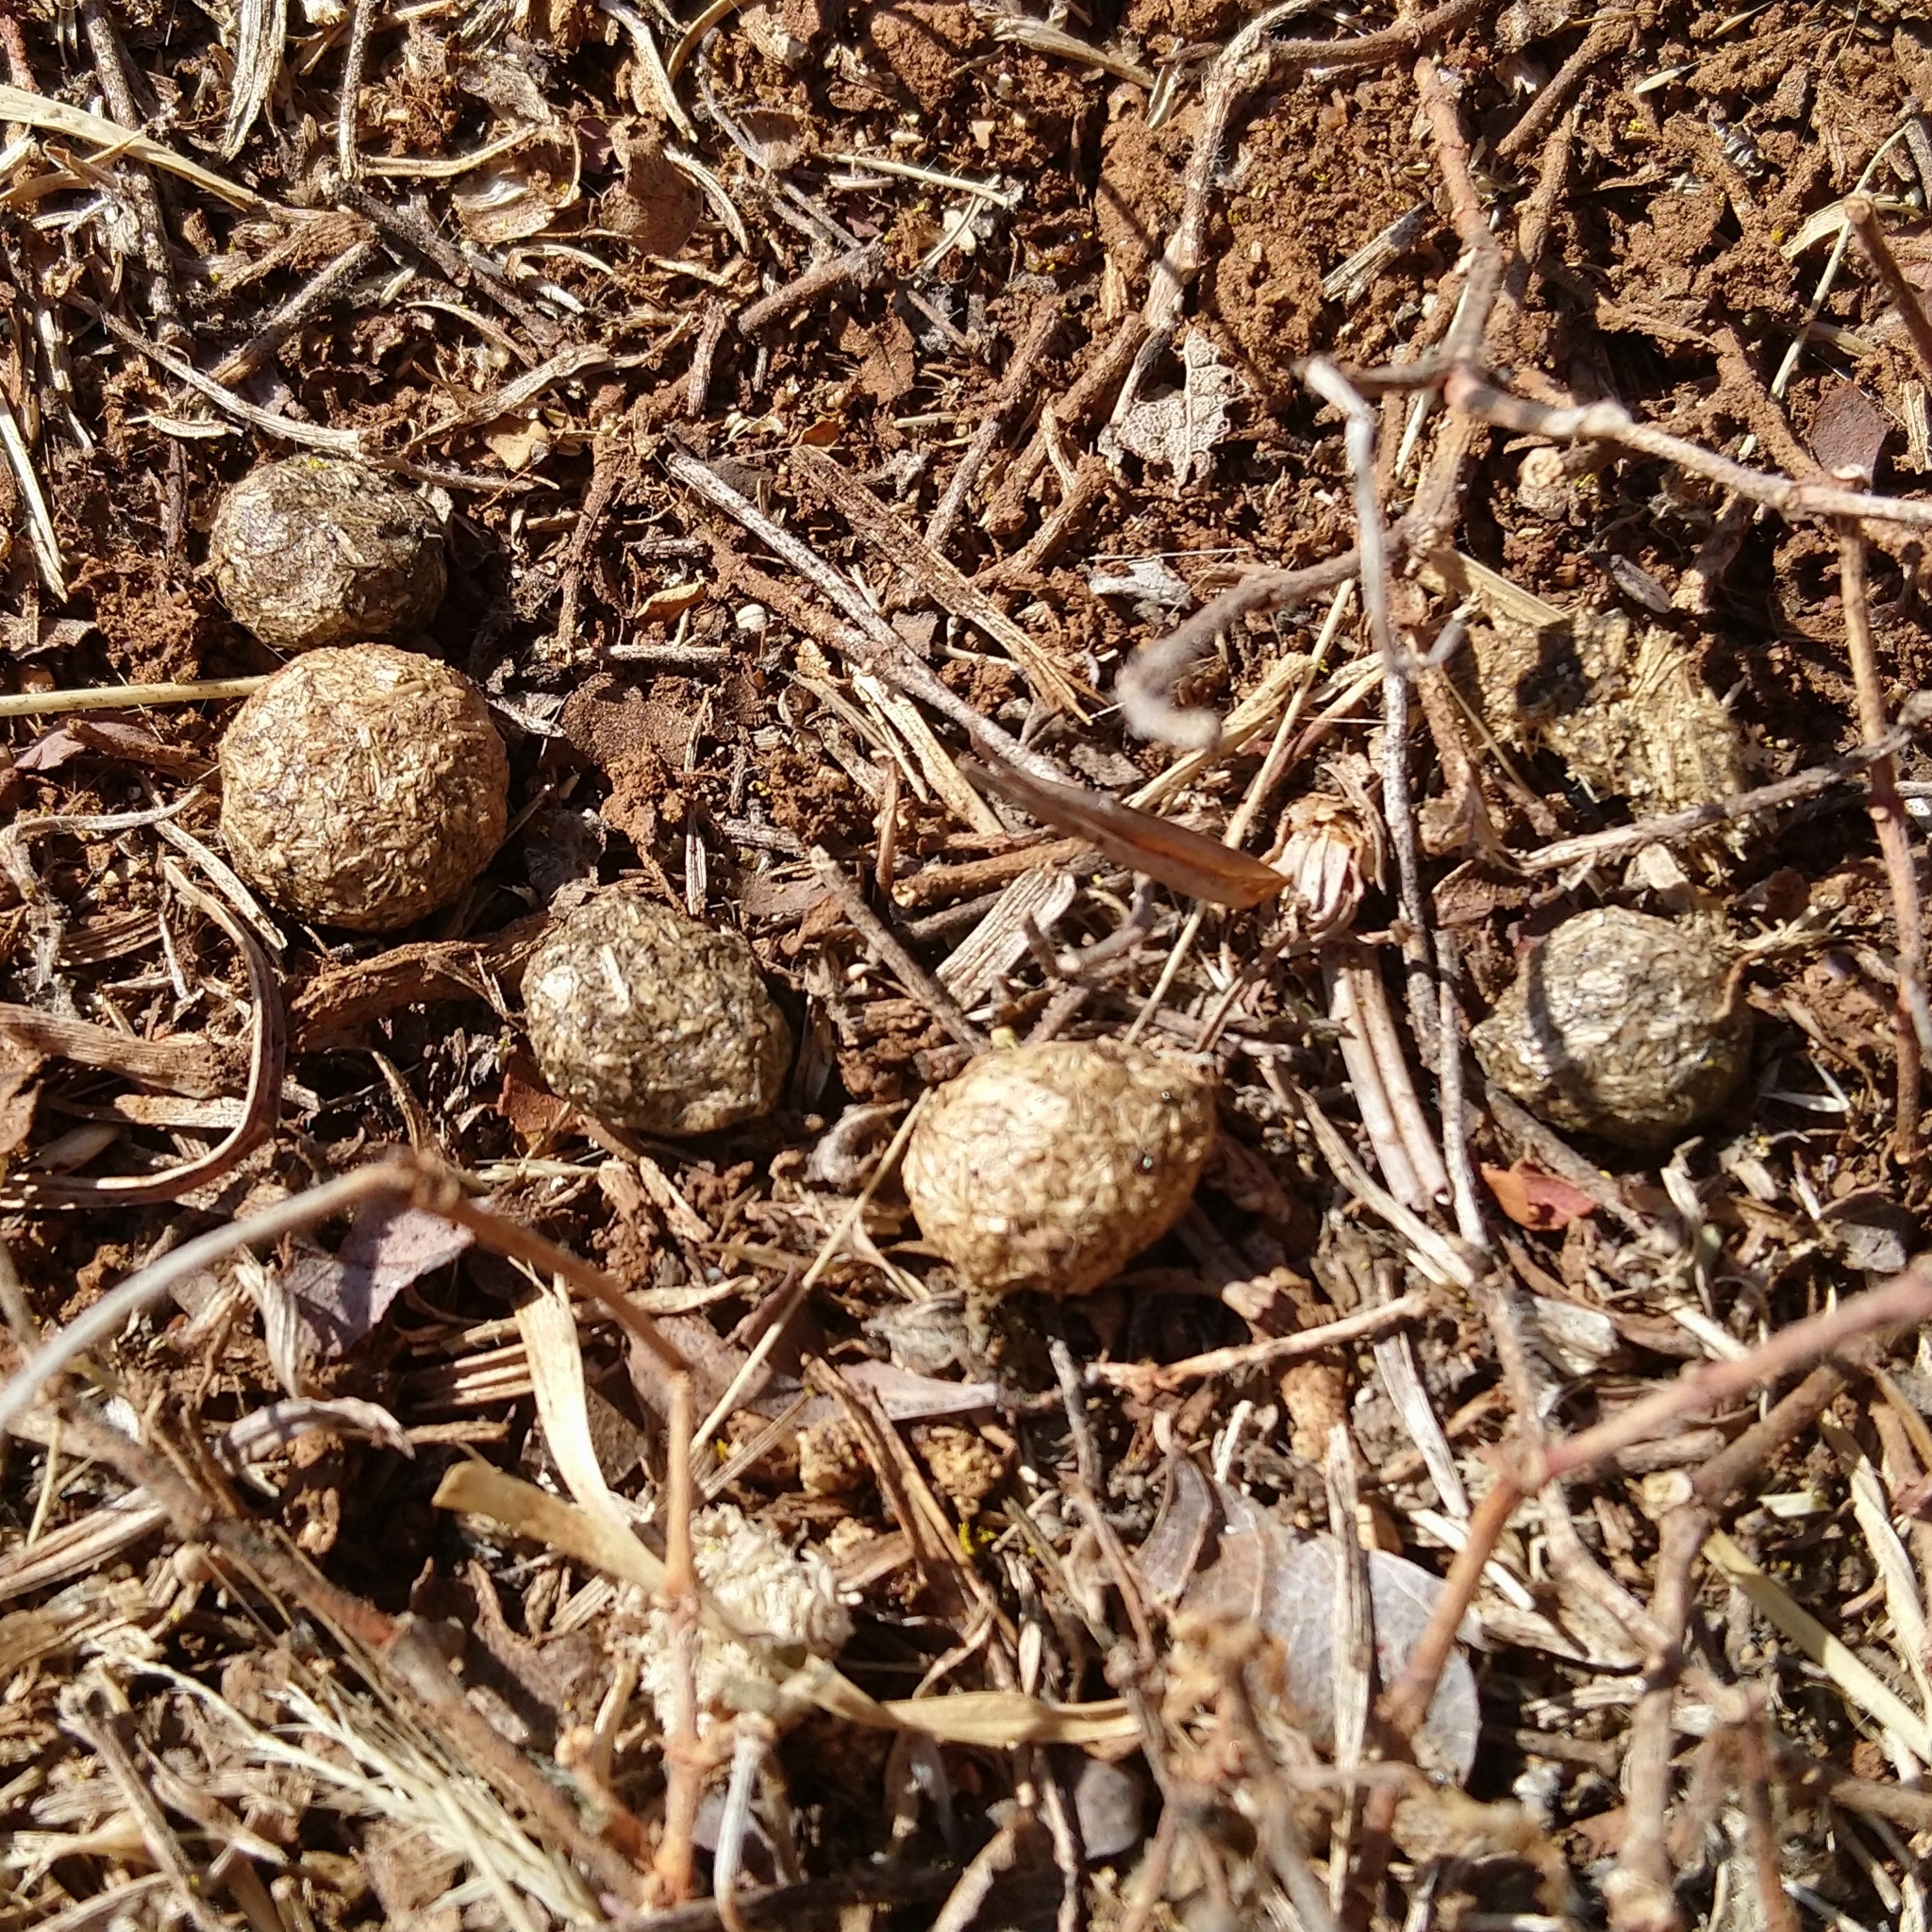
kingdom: Animalia
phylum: Chordata
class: Mammalia
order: Lagomorpha
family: Leporidae
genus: Lepus
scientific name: Lepus saxatilis
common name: Scrub hare
